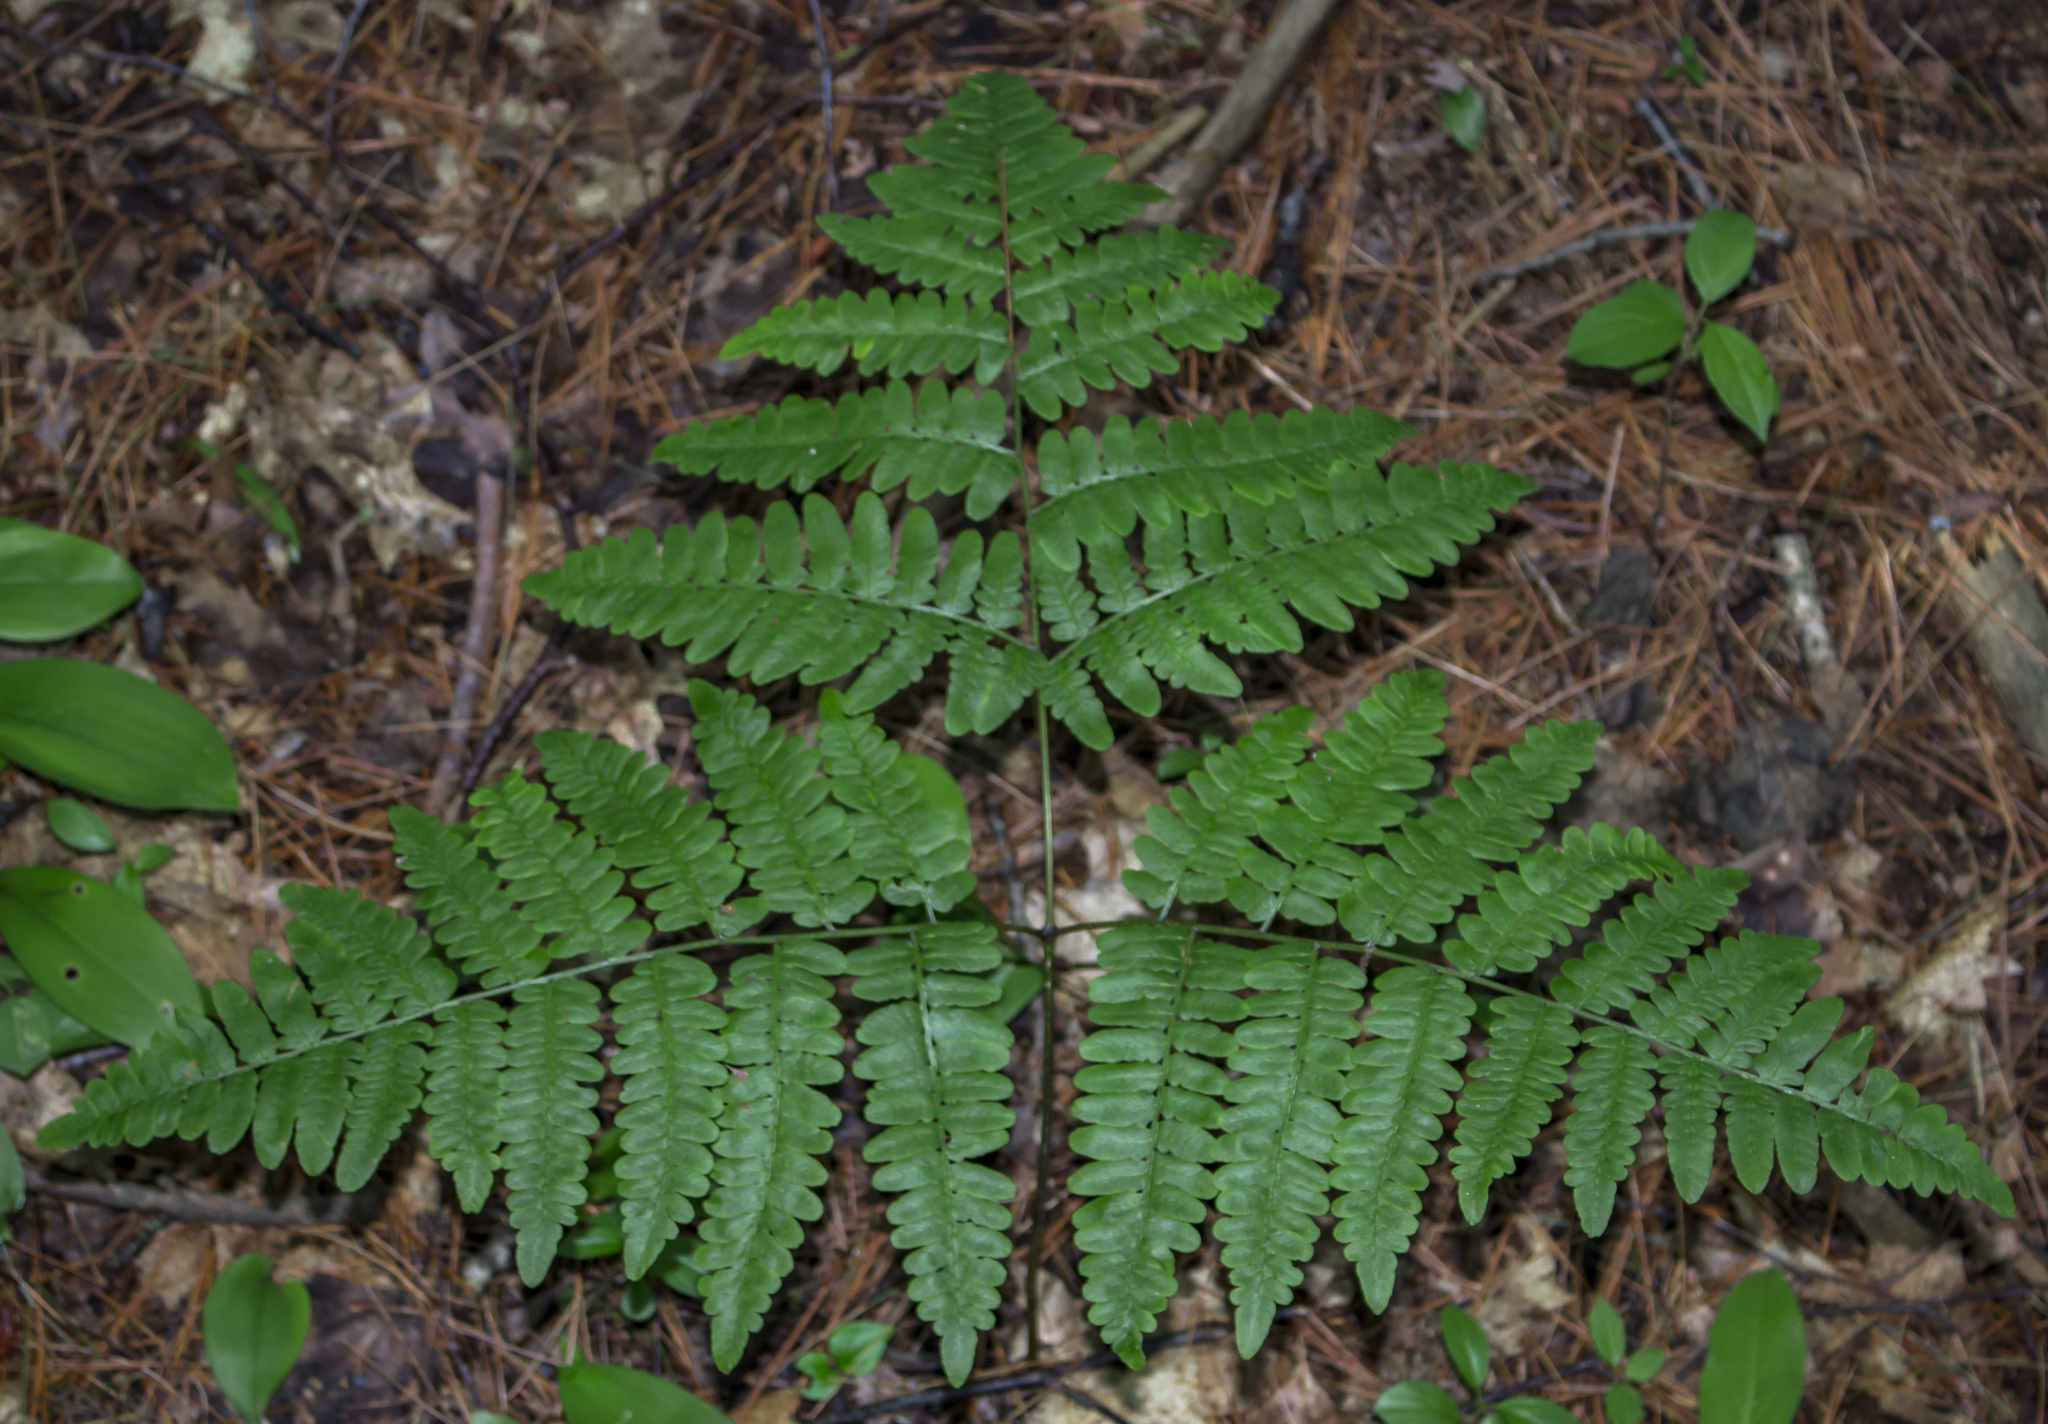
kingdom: Plantae
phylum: Tracheophyta
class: Polypodiopsida
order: Polypodiales
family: Dennstaedtiaceae
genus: Pteridium
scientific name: Pteridium aquilinum
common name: Bracken
